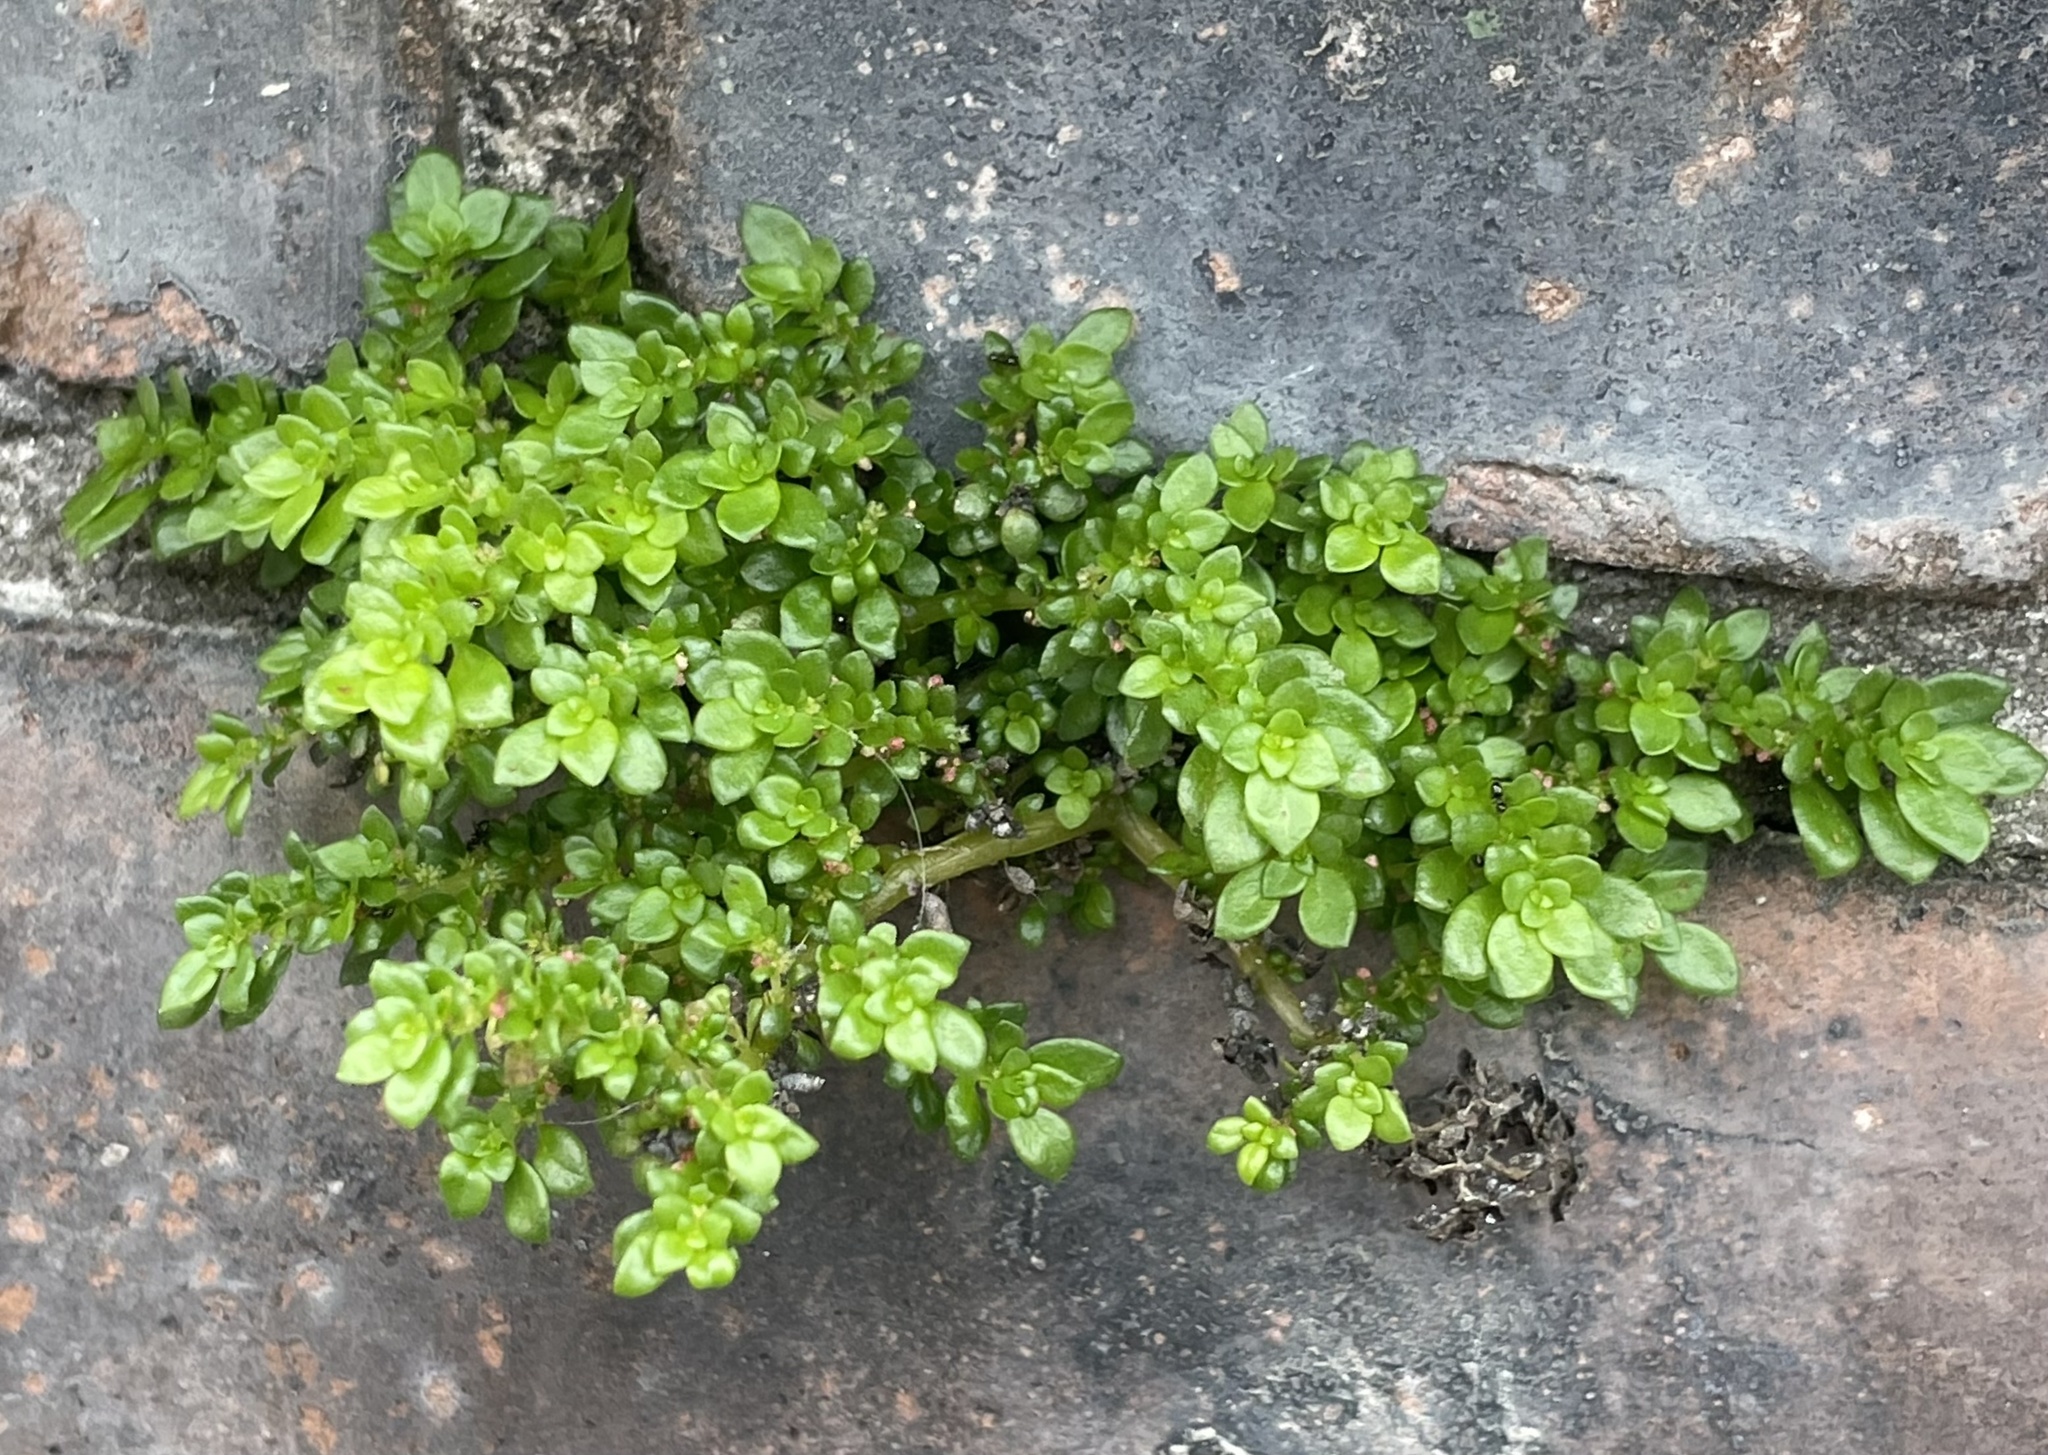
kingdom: Plantae
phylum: Tracheophyta
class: Magnoliopsida
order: Rosales
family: Urticaceae
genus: Pilea
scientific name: Pilea microphylla
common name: Artillery-plant
